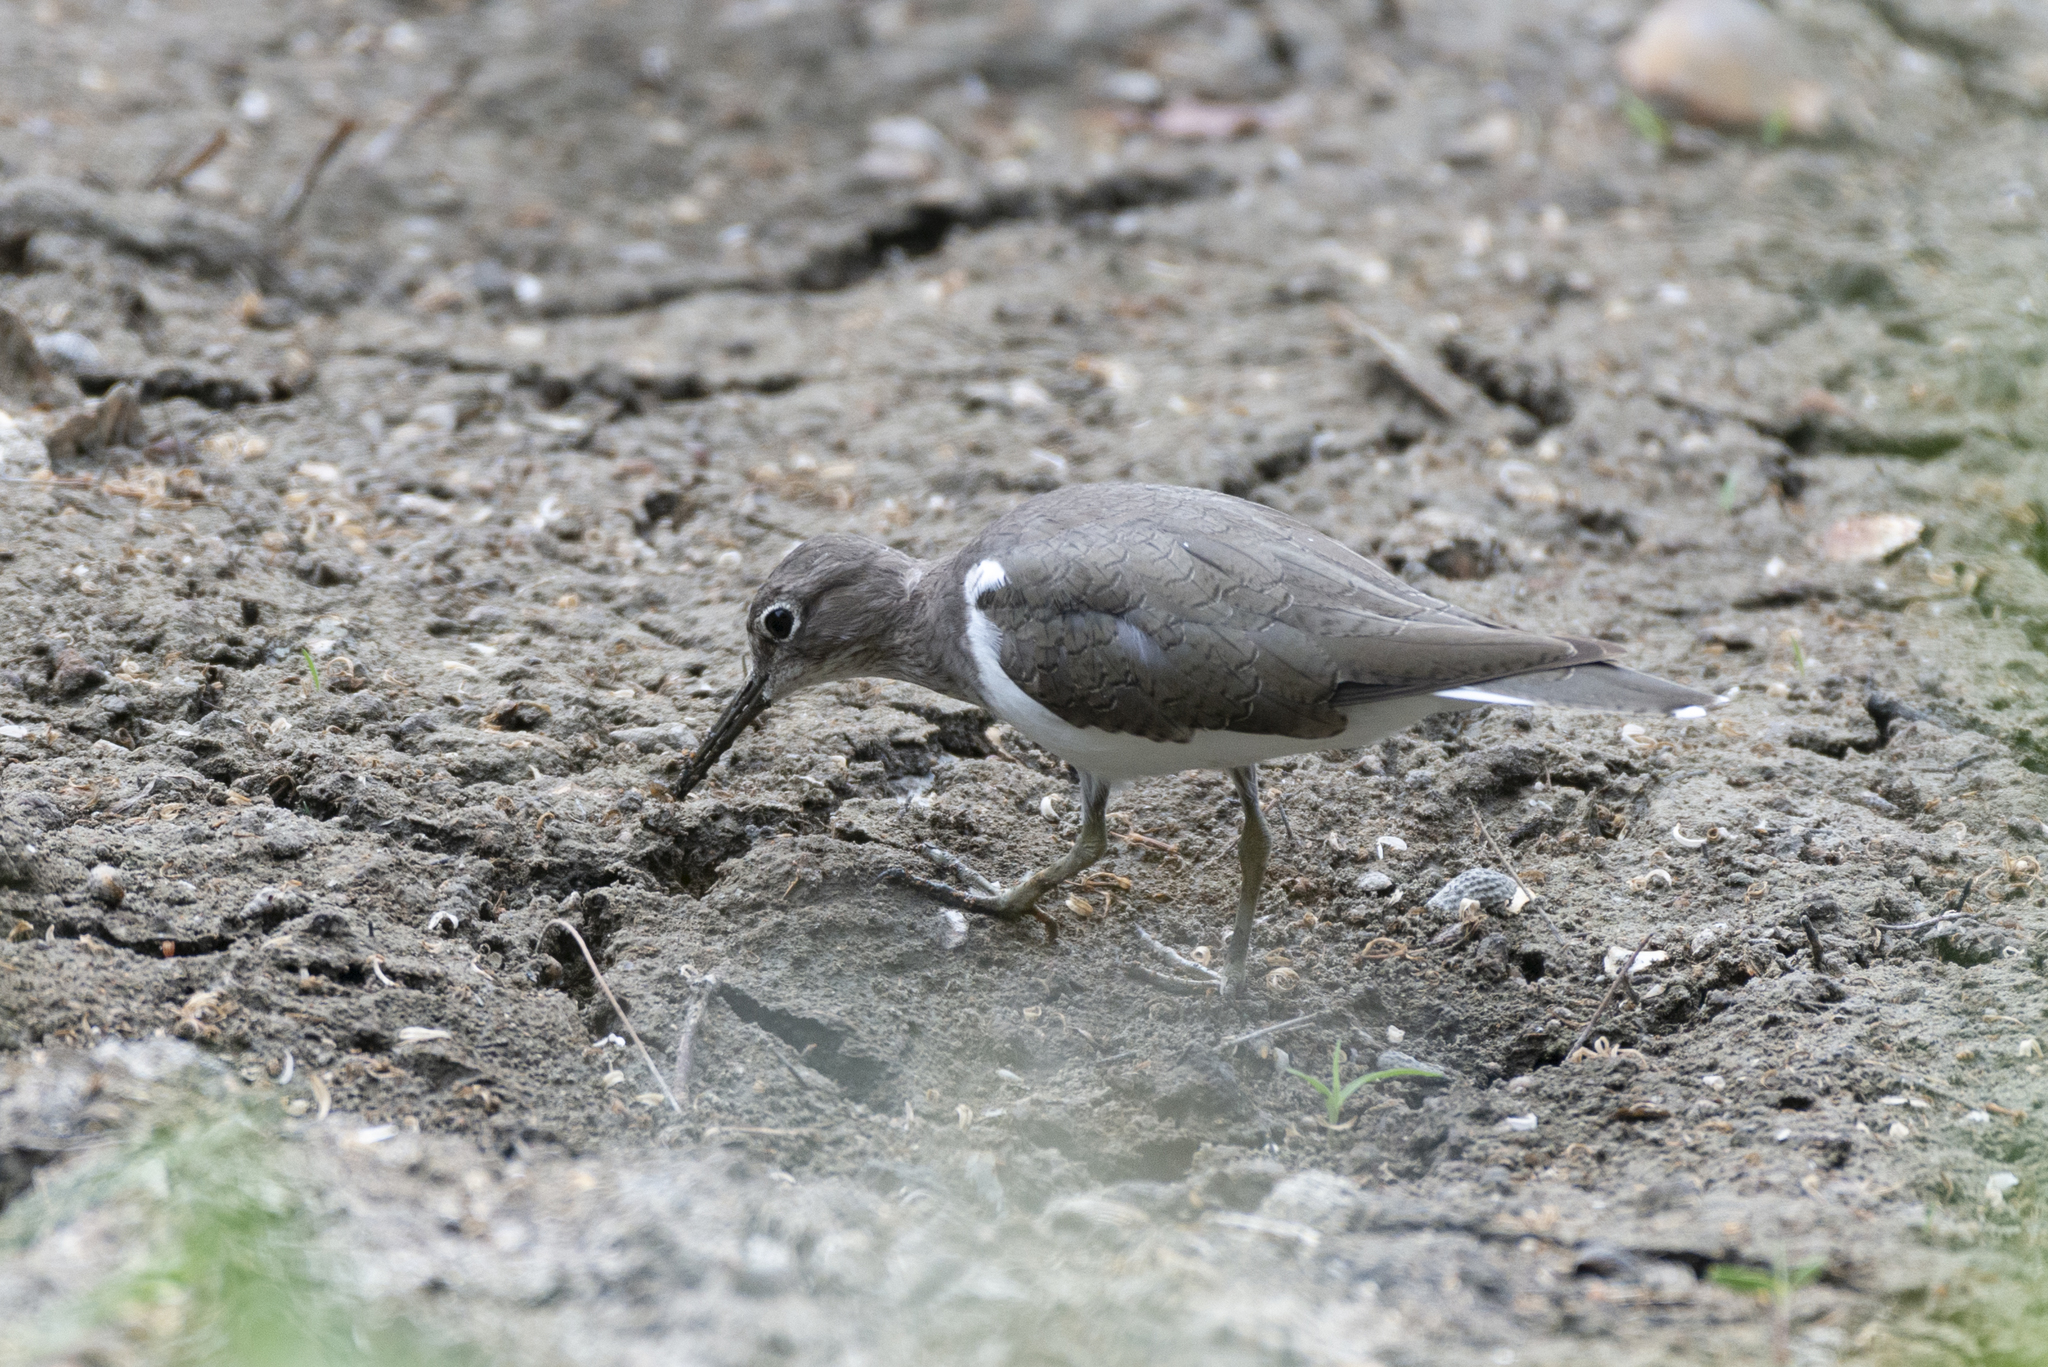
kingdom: Animalia
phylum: Chordata
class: Aves
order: Charadriiformes
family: Scolopacidae
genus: Actitis
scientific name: Actitis hypoleucos
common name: Common sandpiper
